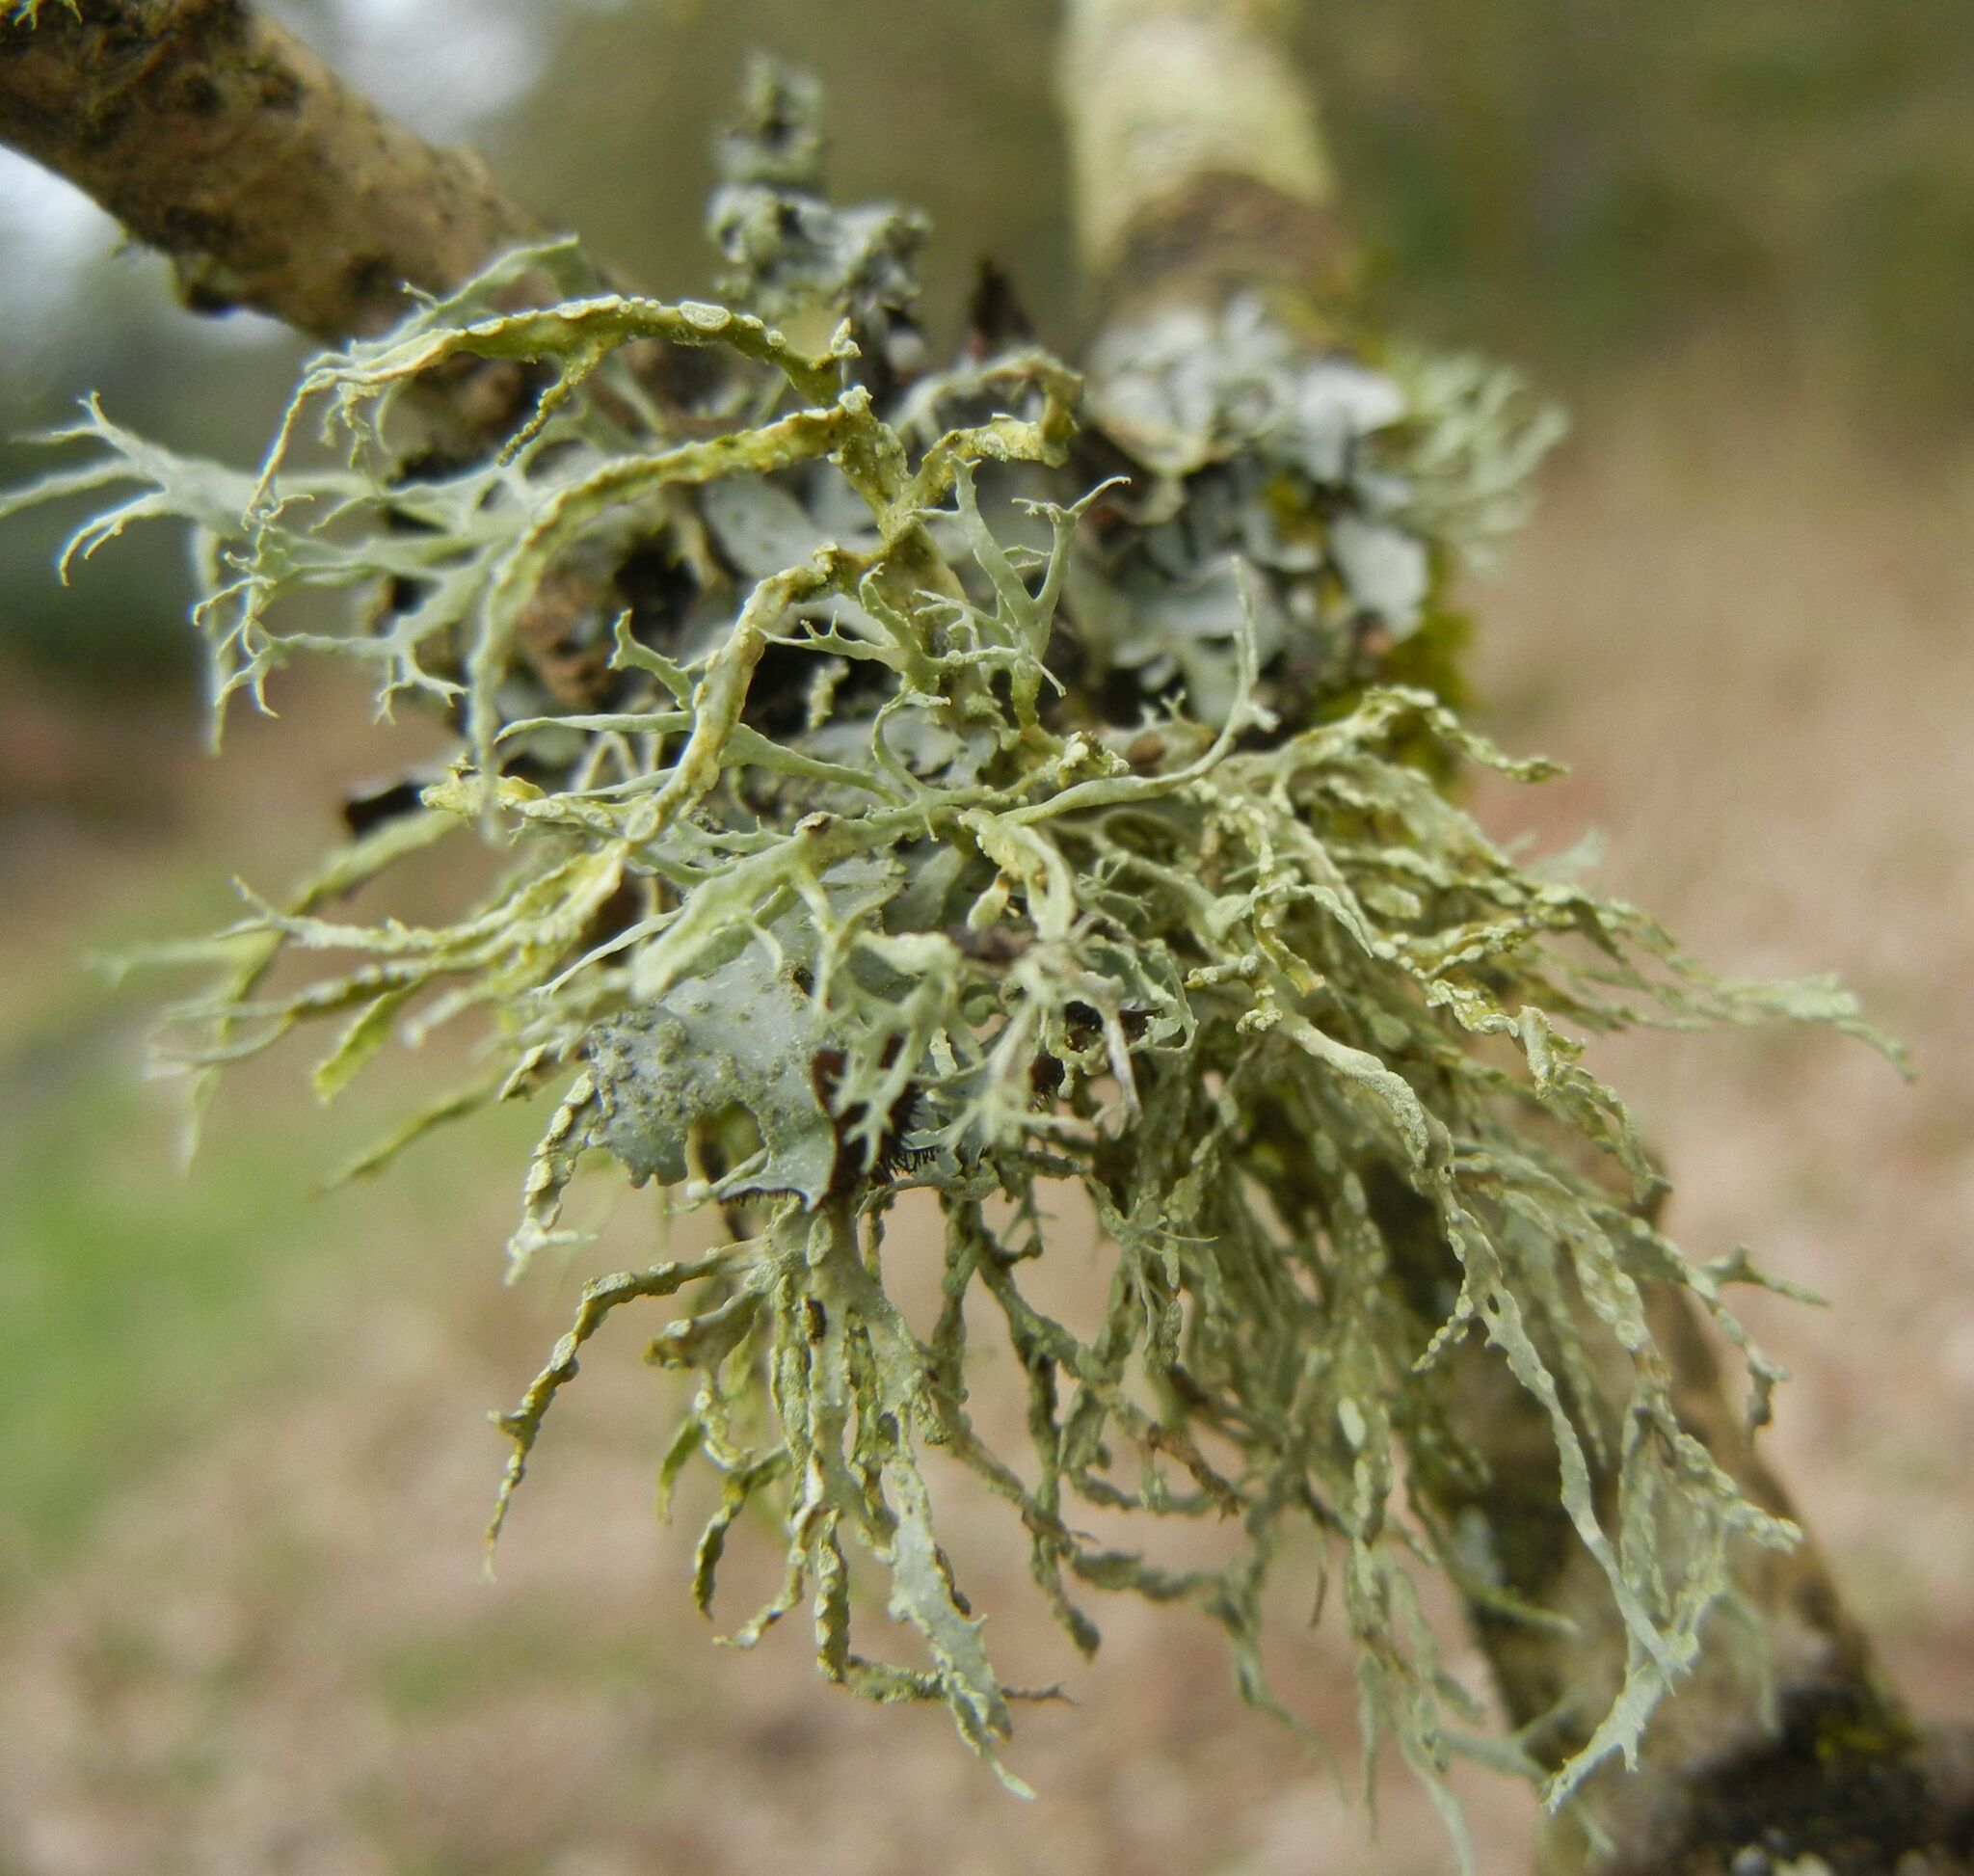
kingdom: Fungi
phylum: Ascomycota
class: Lecanoromycetes
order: Lecanorales
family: Ramalinaceae
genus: Ramalina
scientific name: Ramalina farinacea
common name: Farinose cartilage lichen
